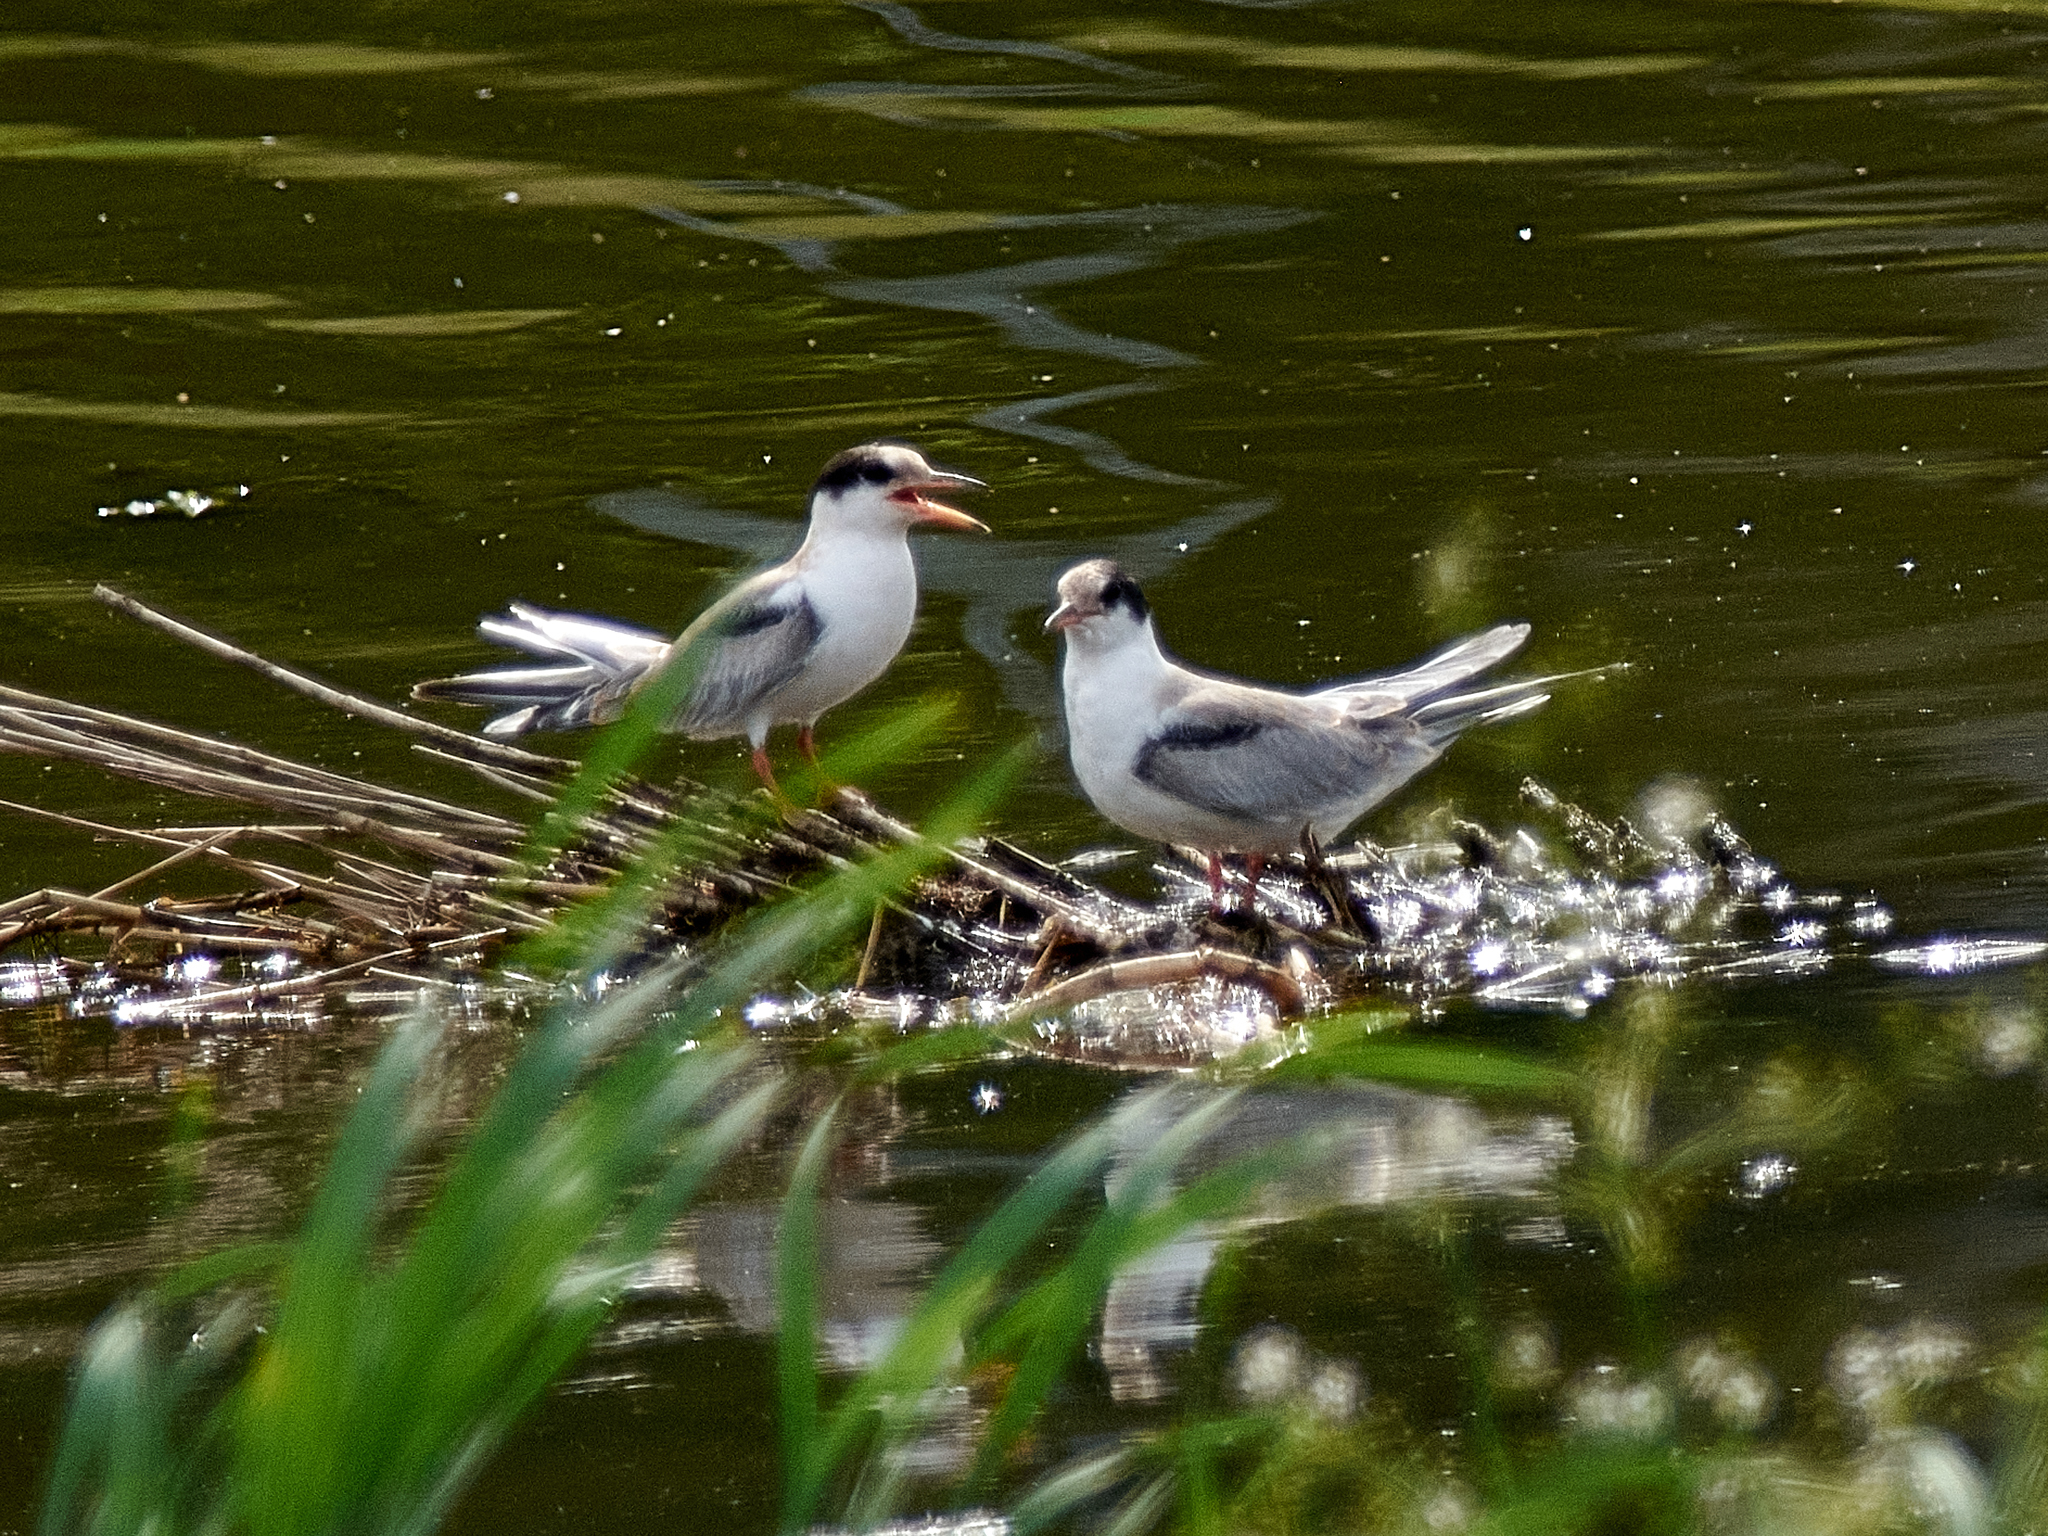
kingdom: Animalia
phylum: Chordata
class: Aves
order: Charadriiformes
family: Laridae
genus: Sterna
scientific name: Sterna hirundo
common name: Common tern
